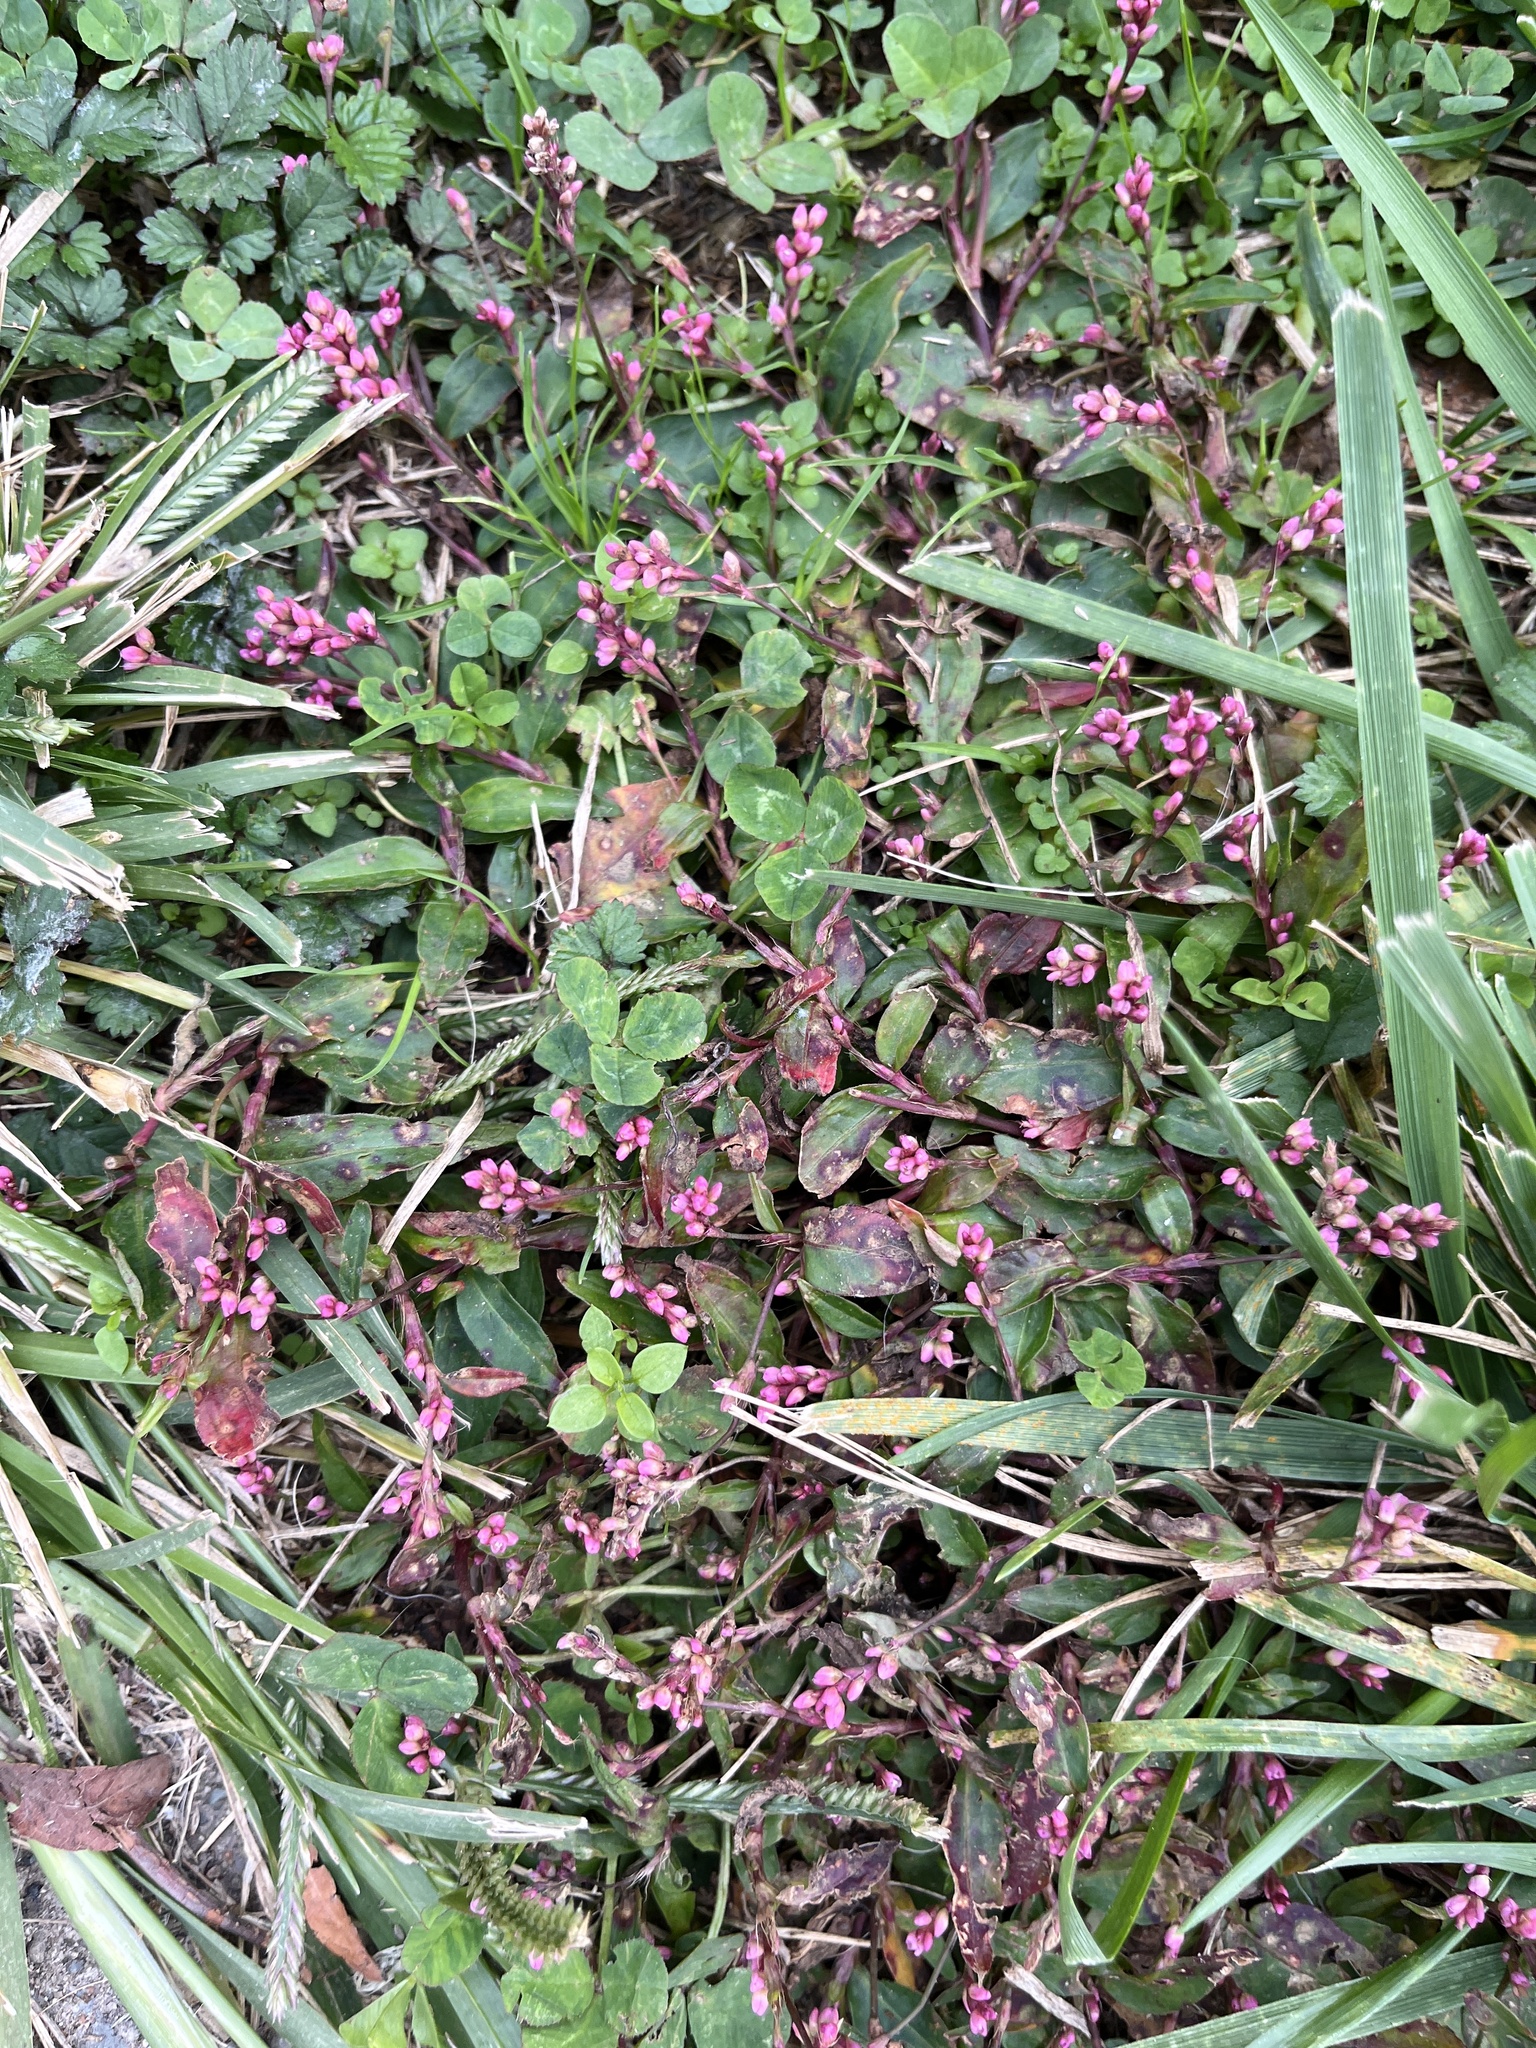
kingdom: Plantae
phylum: Tracheophyta
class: Magnoliopsida
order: Caryophyllales
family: Polygonaceae
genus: Persicaria
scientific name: Persicaria longiseta
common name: Bristly lady's-thumb
